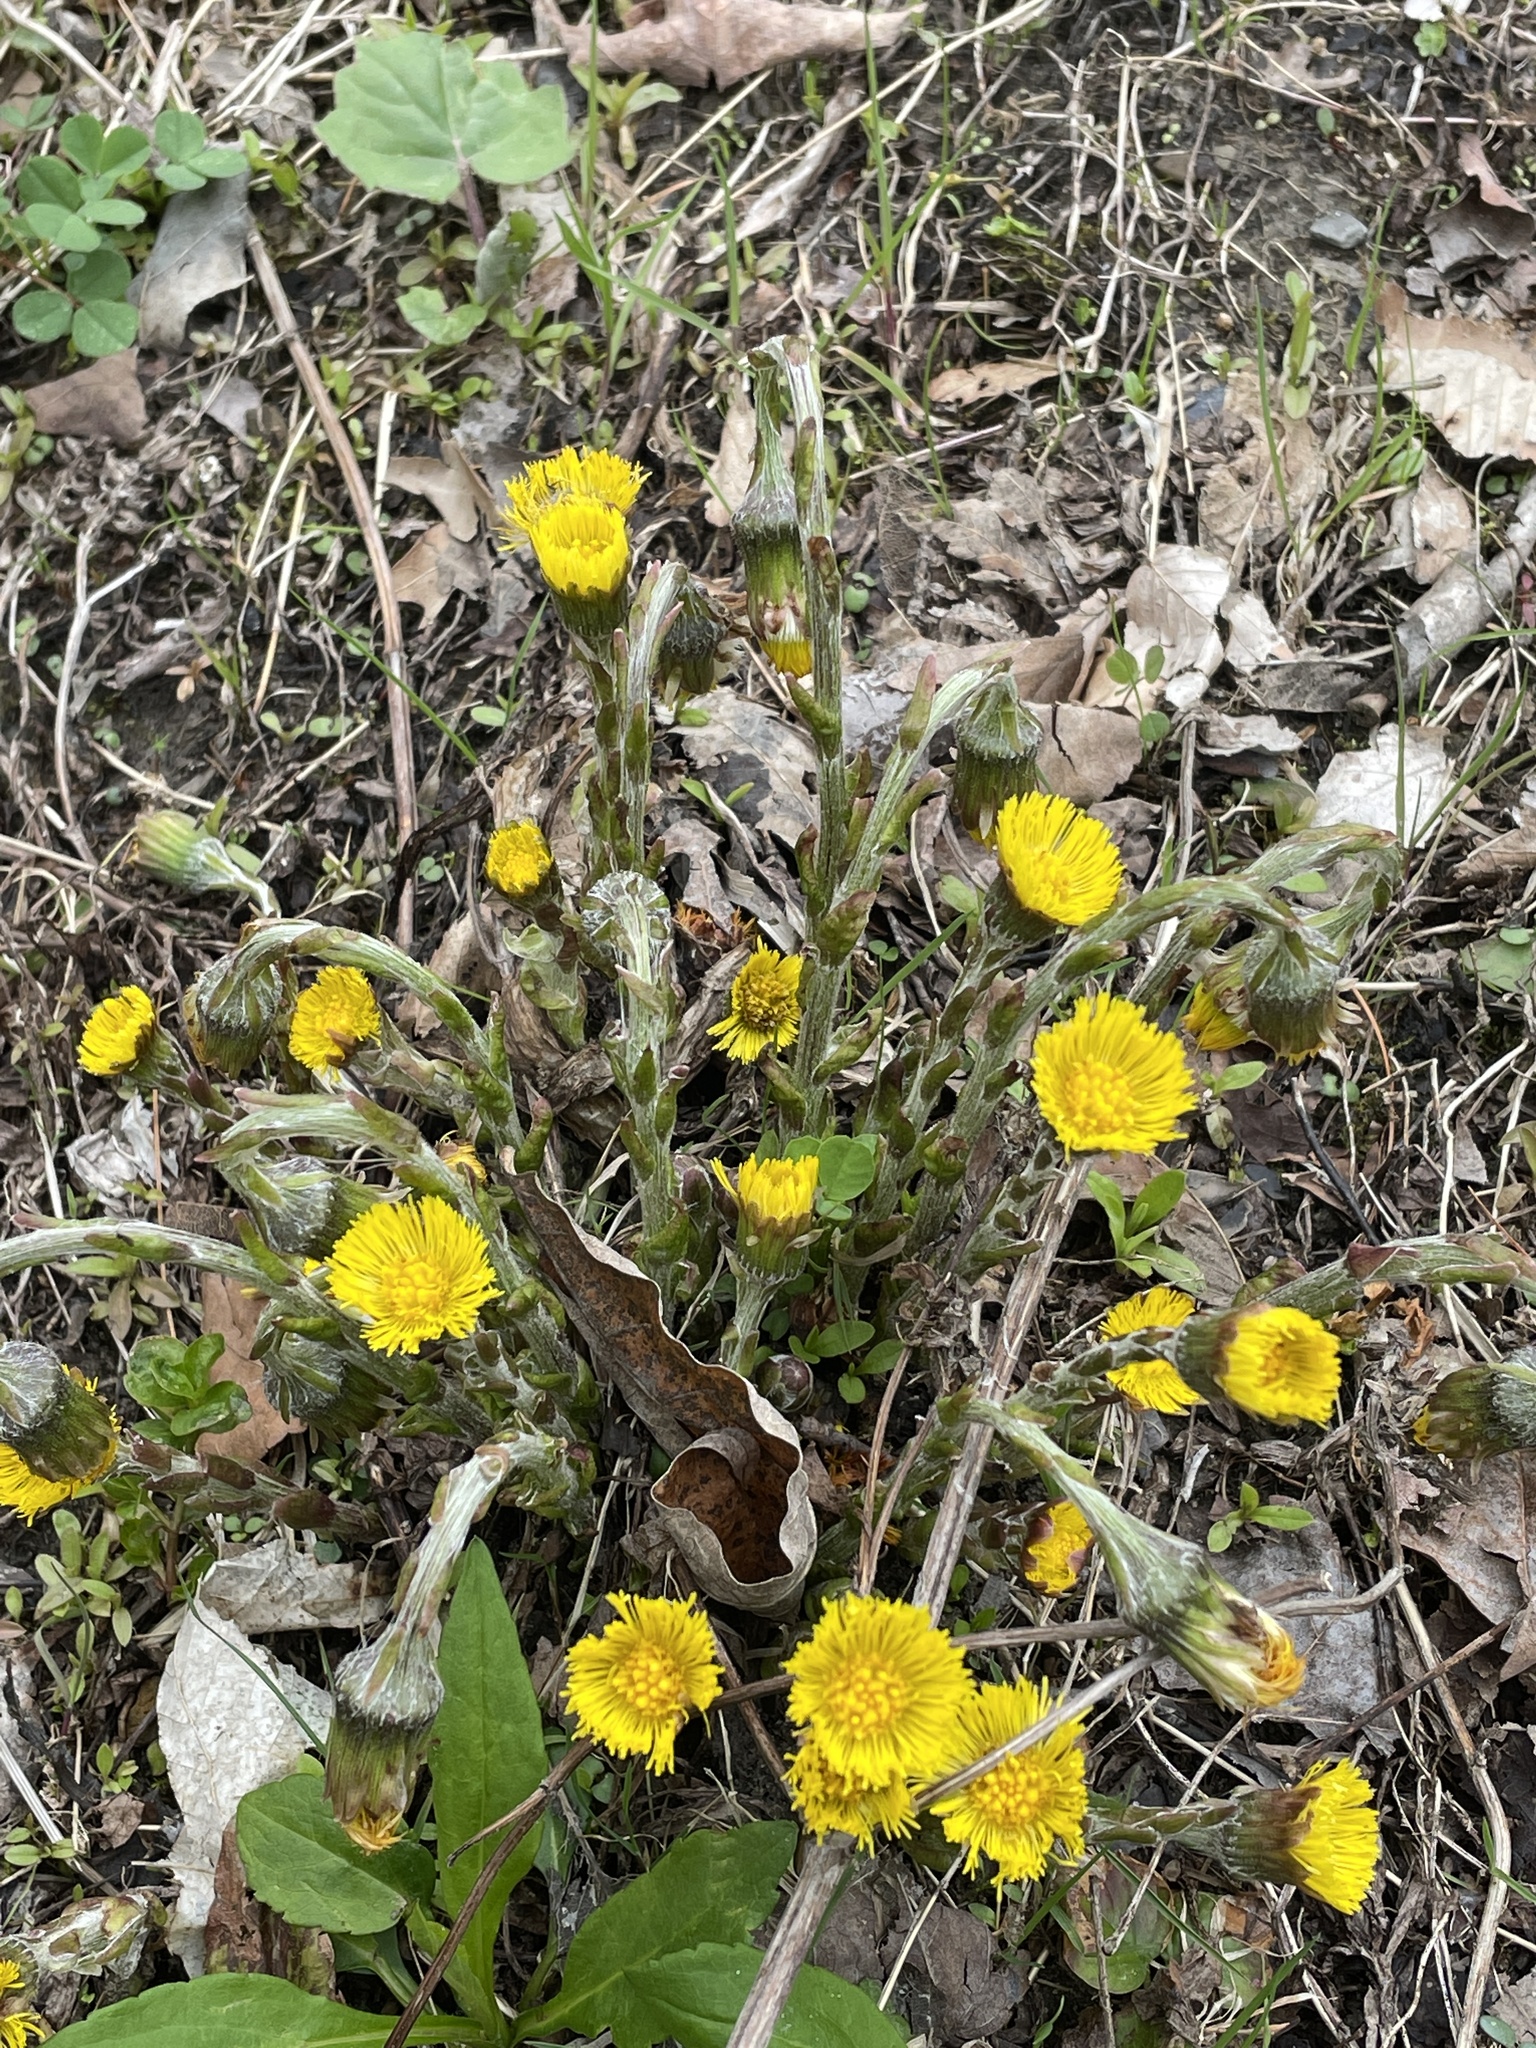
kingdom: Plantae
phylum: Tracheophyta
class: Magnoliopsida
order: Asterales
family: Asteraceae
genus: Tussilago
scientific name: Tussilago farfara
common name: Coltsfoot
